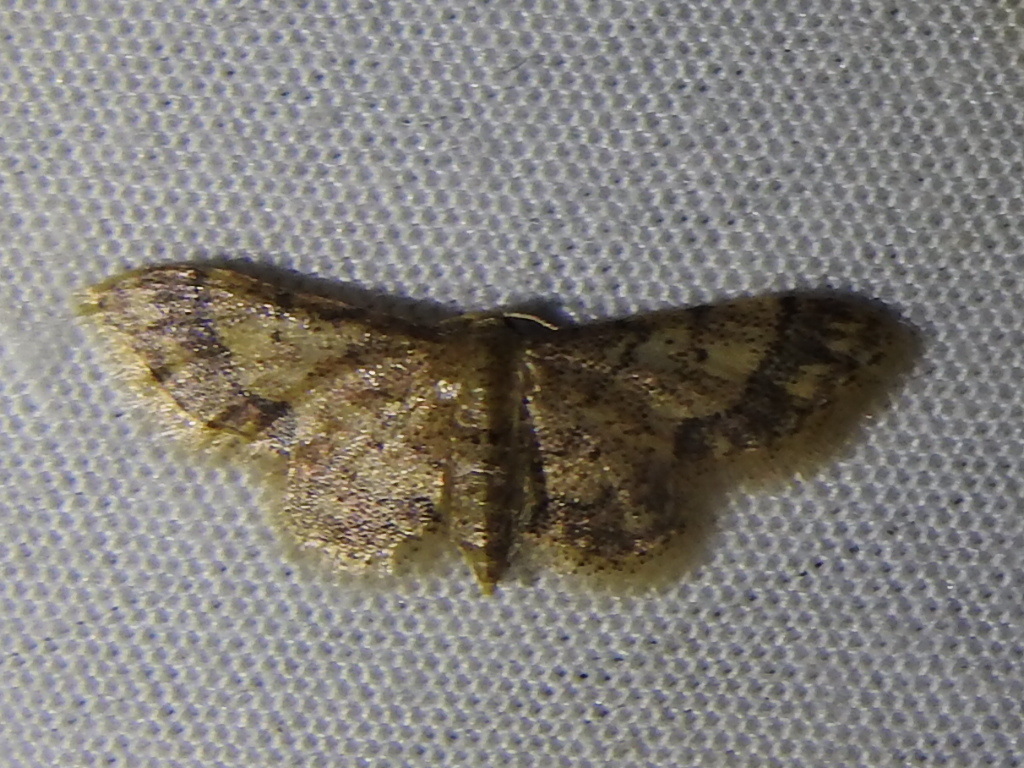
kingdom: Animalia
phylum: Arthropoda
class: Insecta
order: Lepidoptera
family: Geometridae
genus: Idaea
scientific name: Idaea celtima
